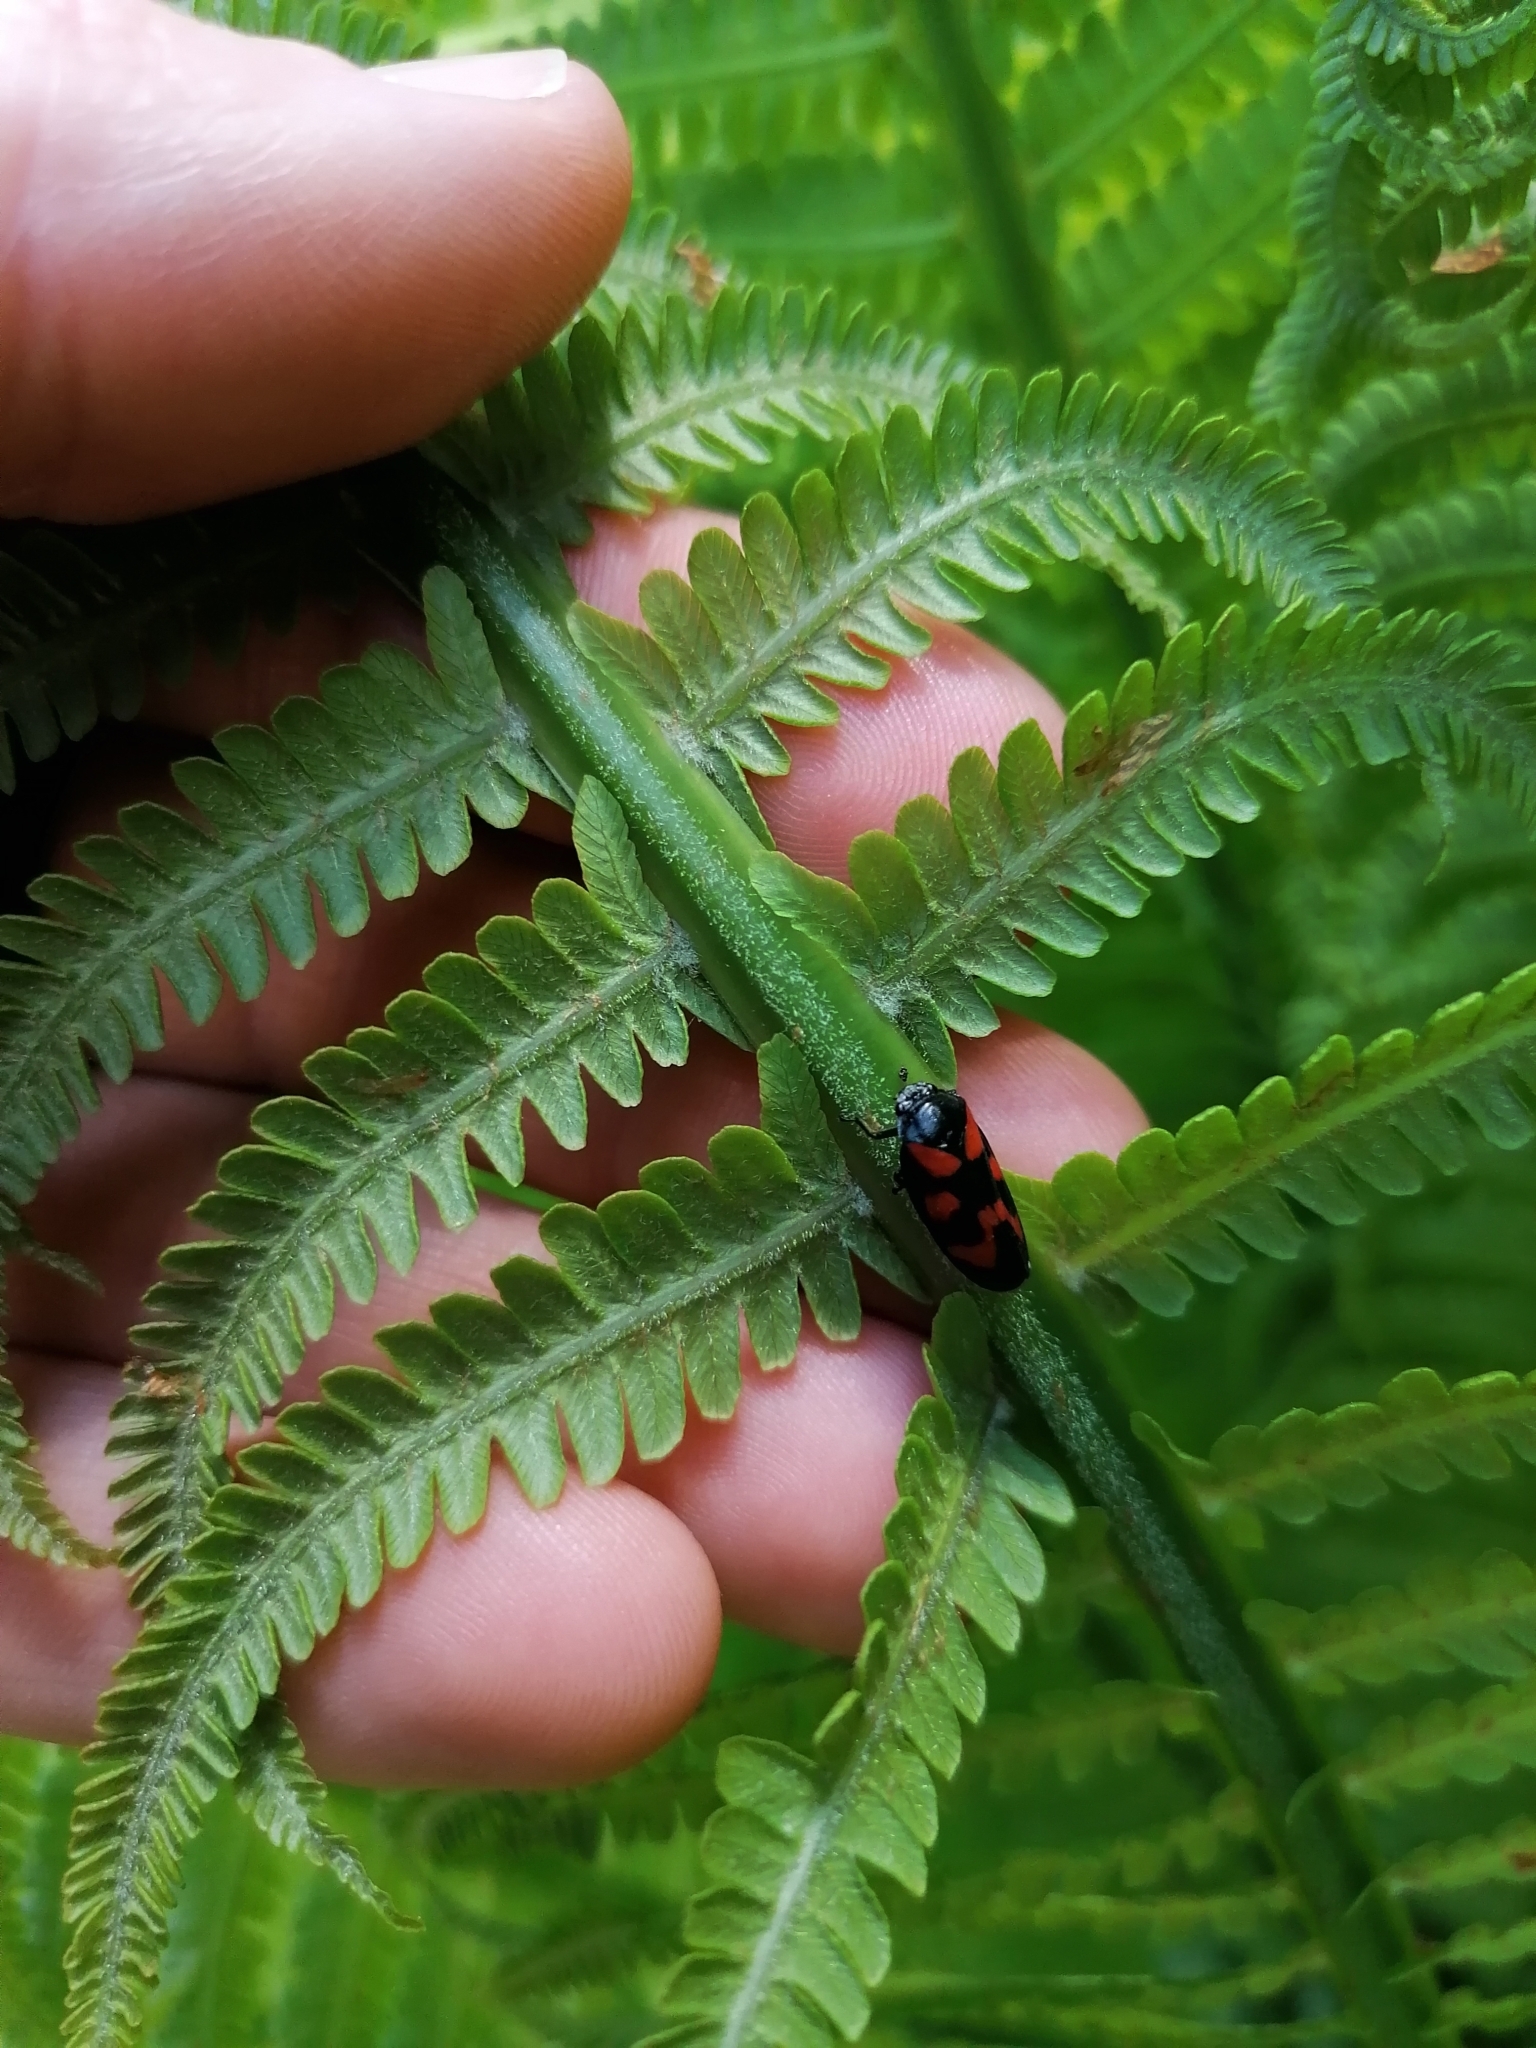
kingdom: Animalia
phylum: Arthropoda
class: Insecta
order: Hemiptera
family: Cercopidae
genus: Cercopis
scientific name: Cercopis vulnerata
